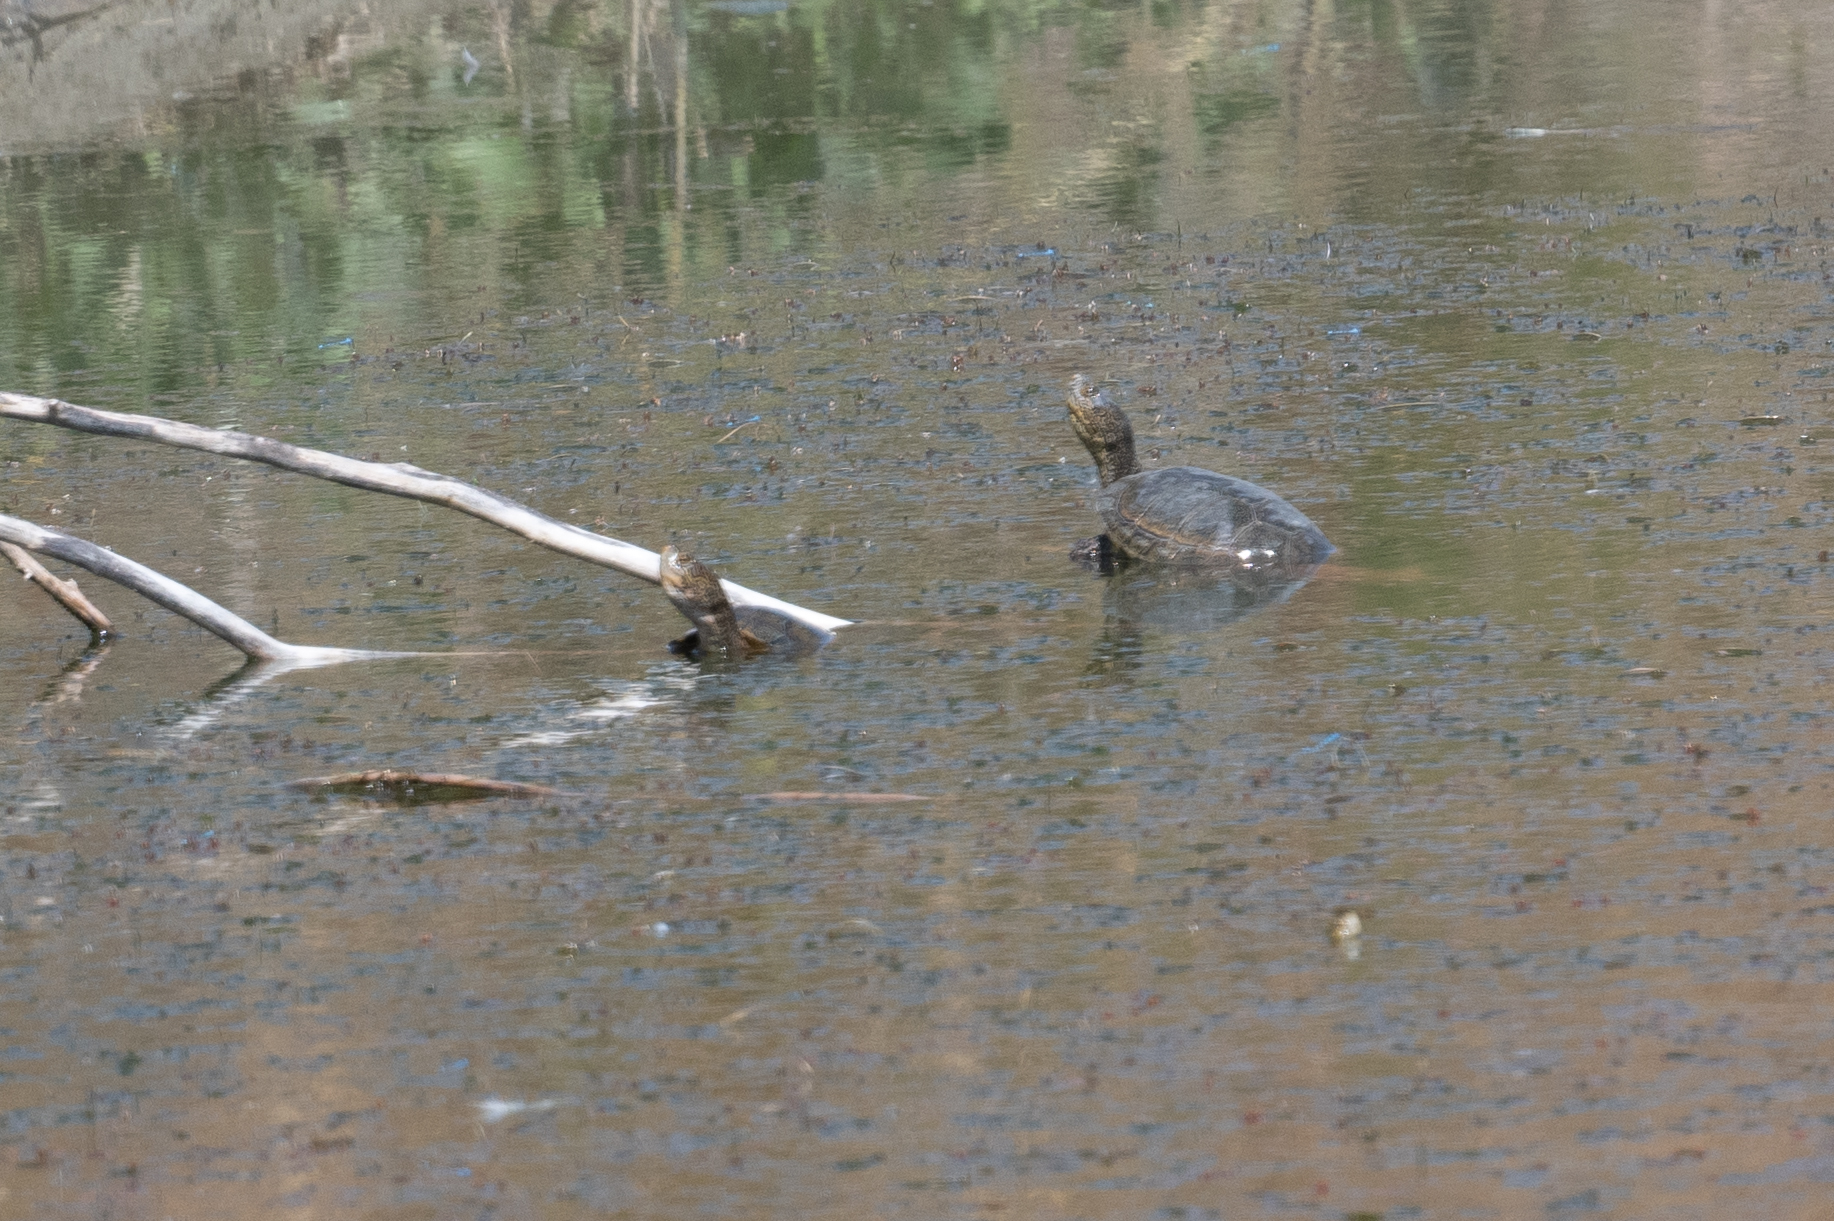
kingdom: Animalia
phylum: Chordata
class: Testudines
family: Emydidae
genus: Actinemys
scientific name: Actinemys marmorata
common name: Western pond turtle
